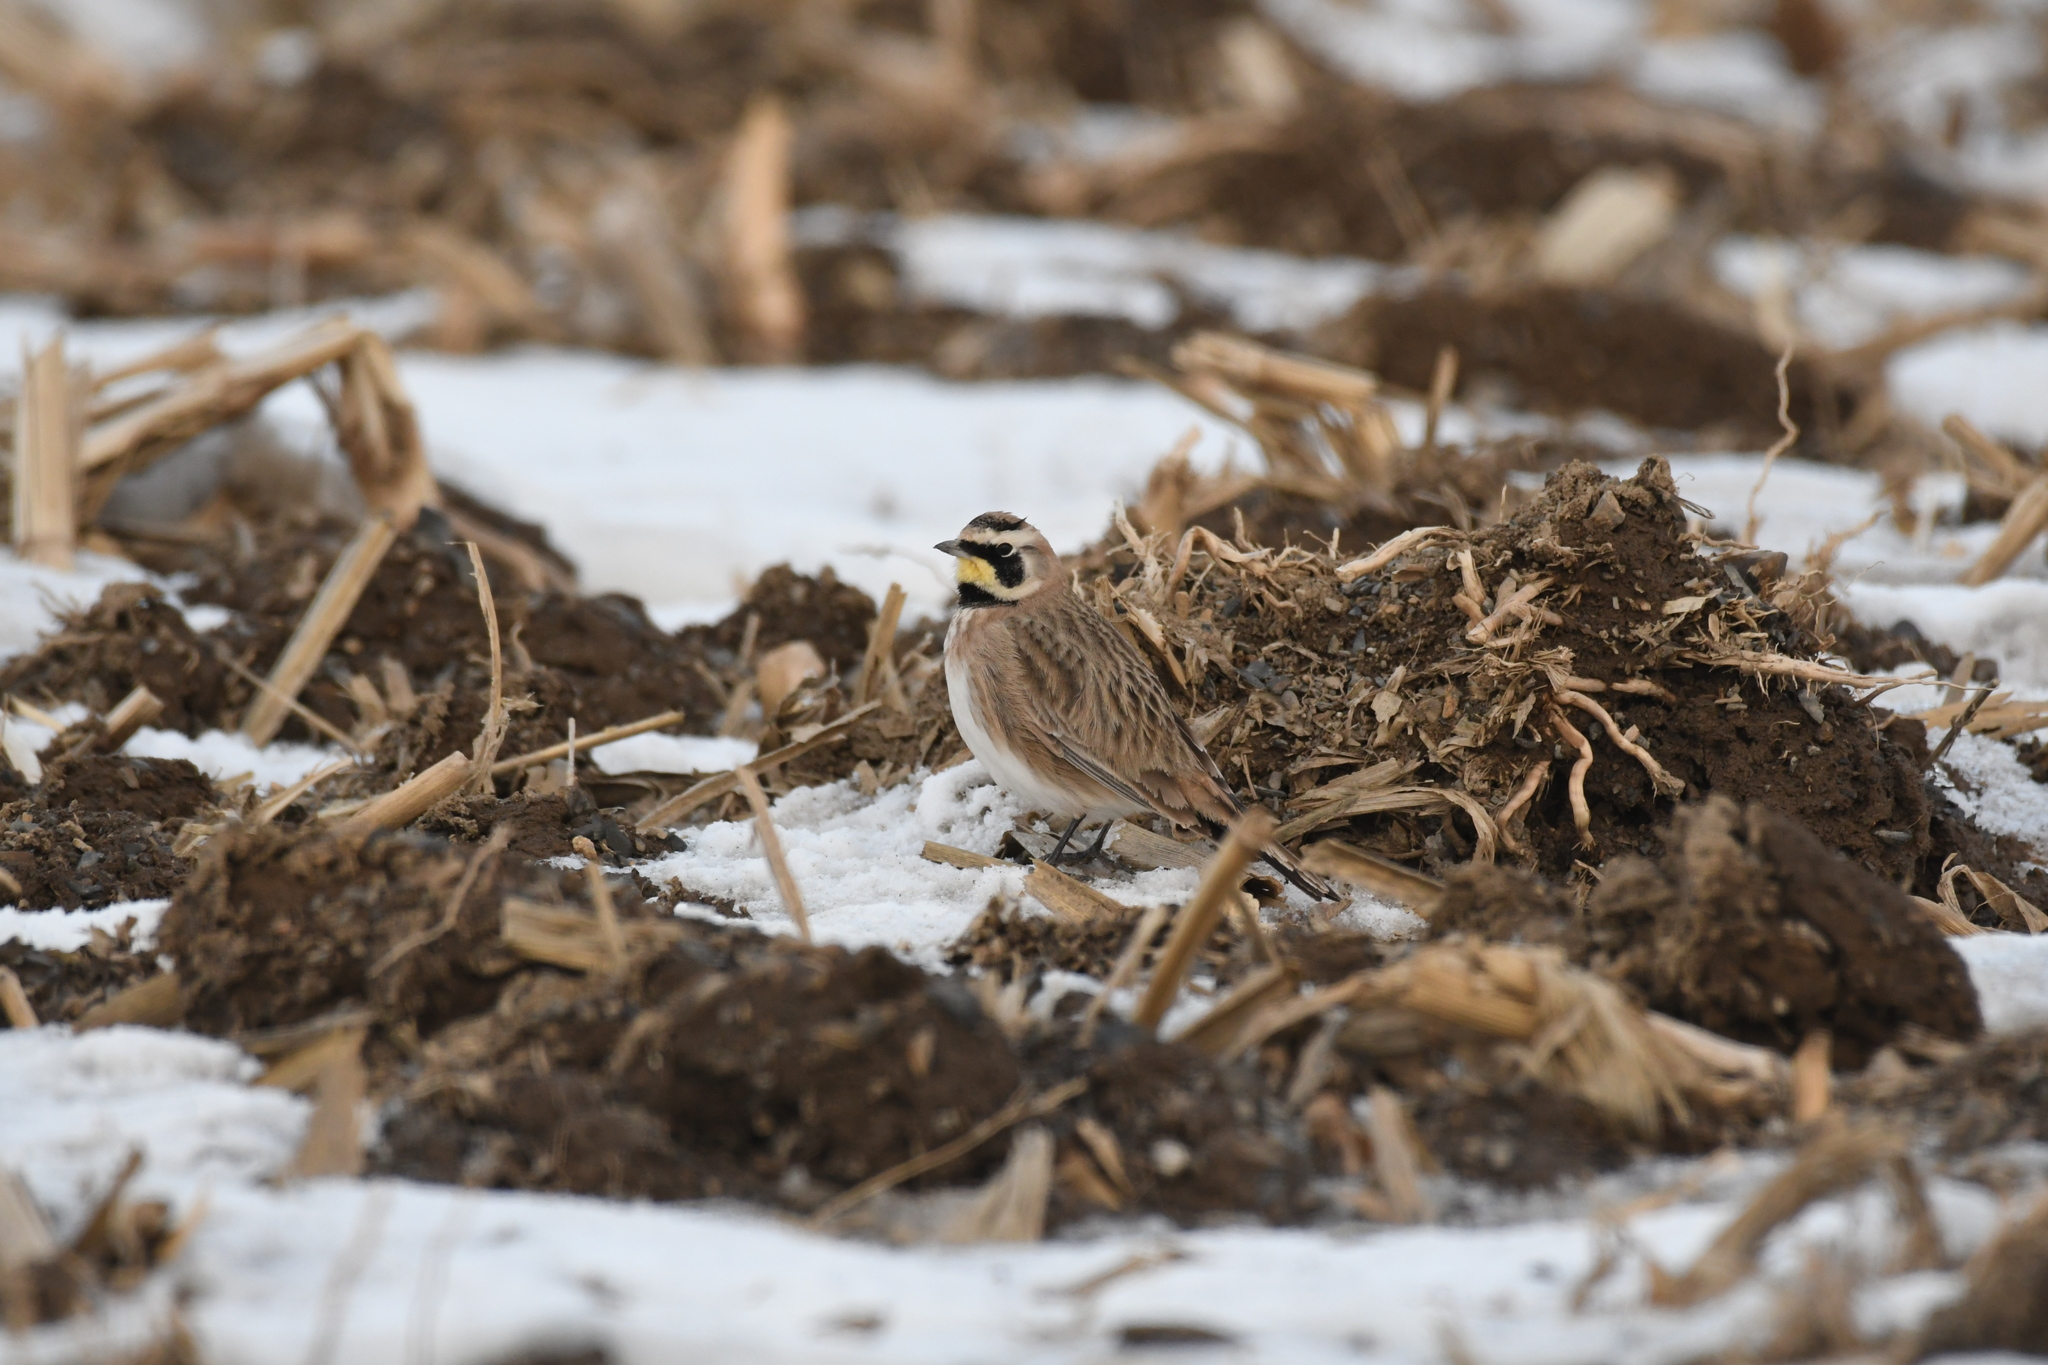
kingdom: Animalia
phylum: Chordata
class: Aves
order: Passeriformes
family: Alaudidae
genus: Eremophila
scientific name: Eremophila alpestris
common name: Horned lark
